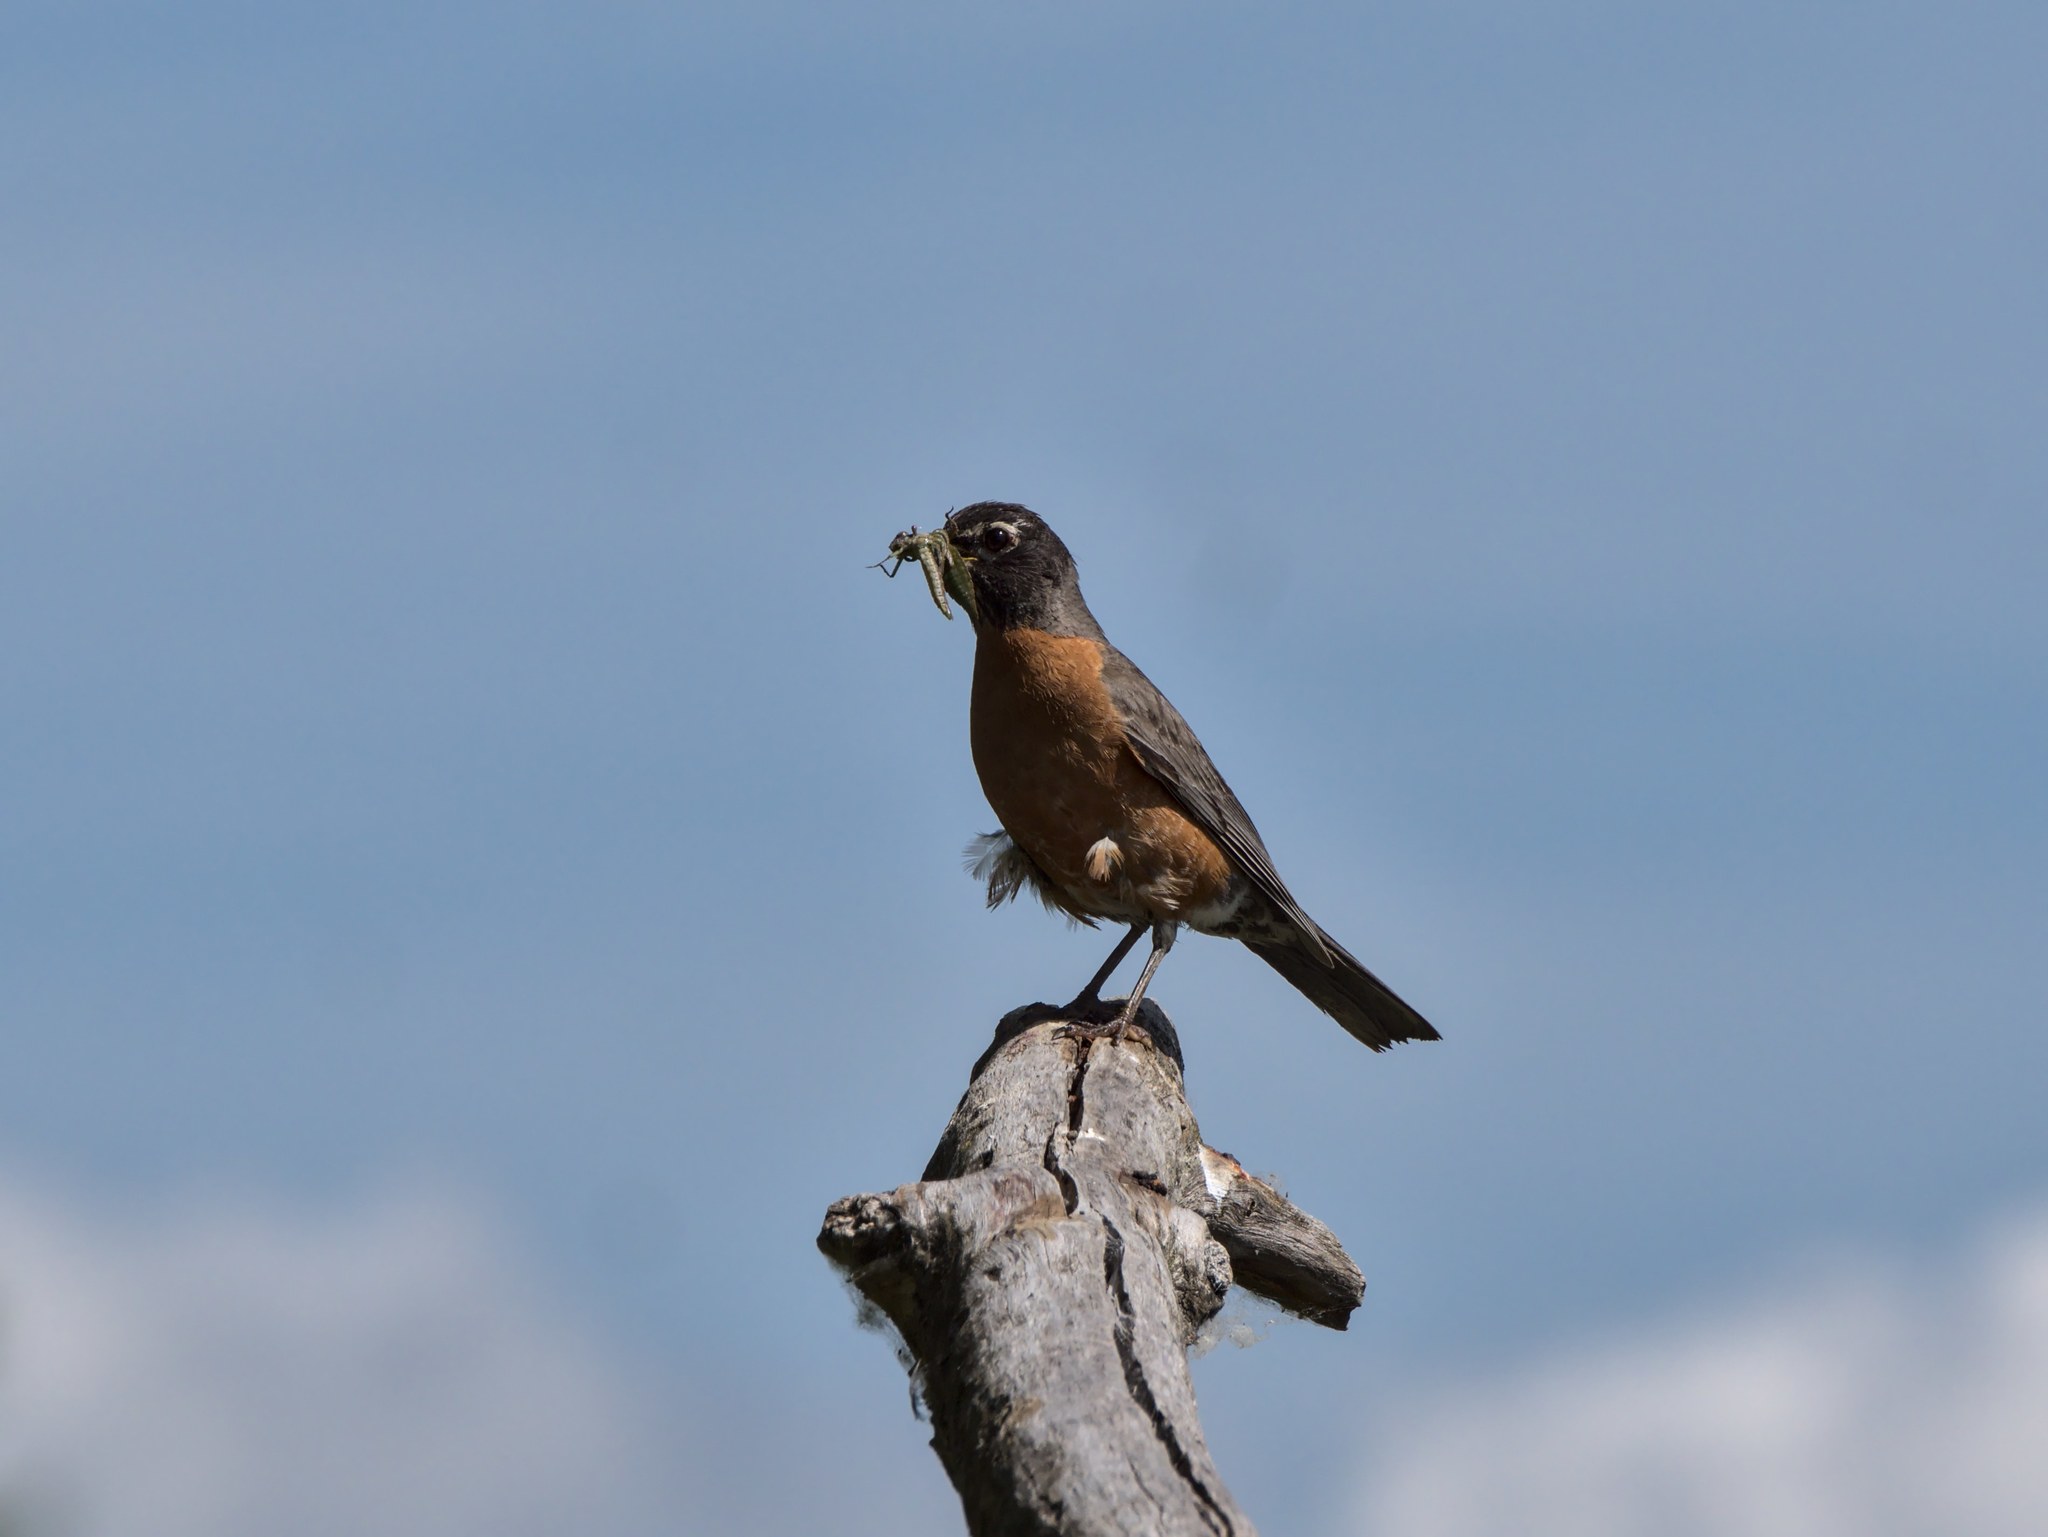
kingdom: Animalia
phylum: Chordata
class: Aves
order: Passeriformes
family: Turdidae
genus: Turdus
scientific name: Turdus migratorius
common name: American robin
